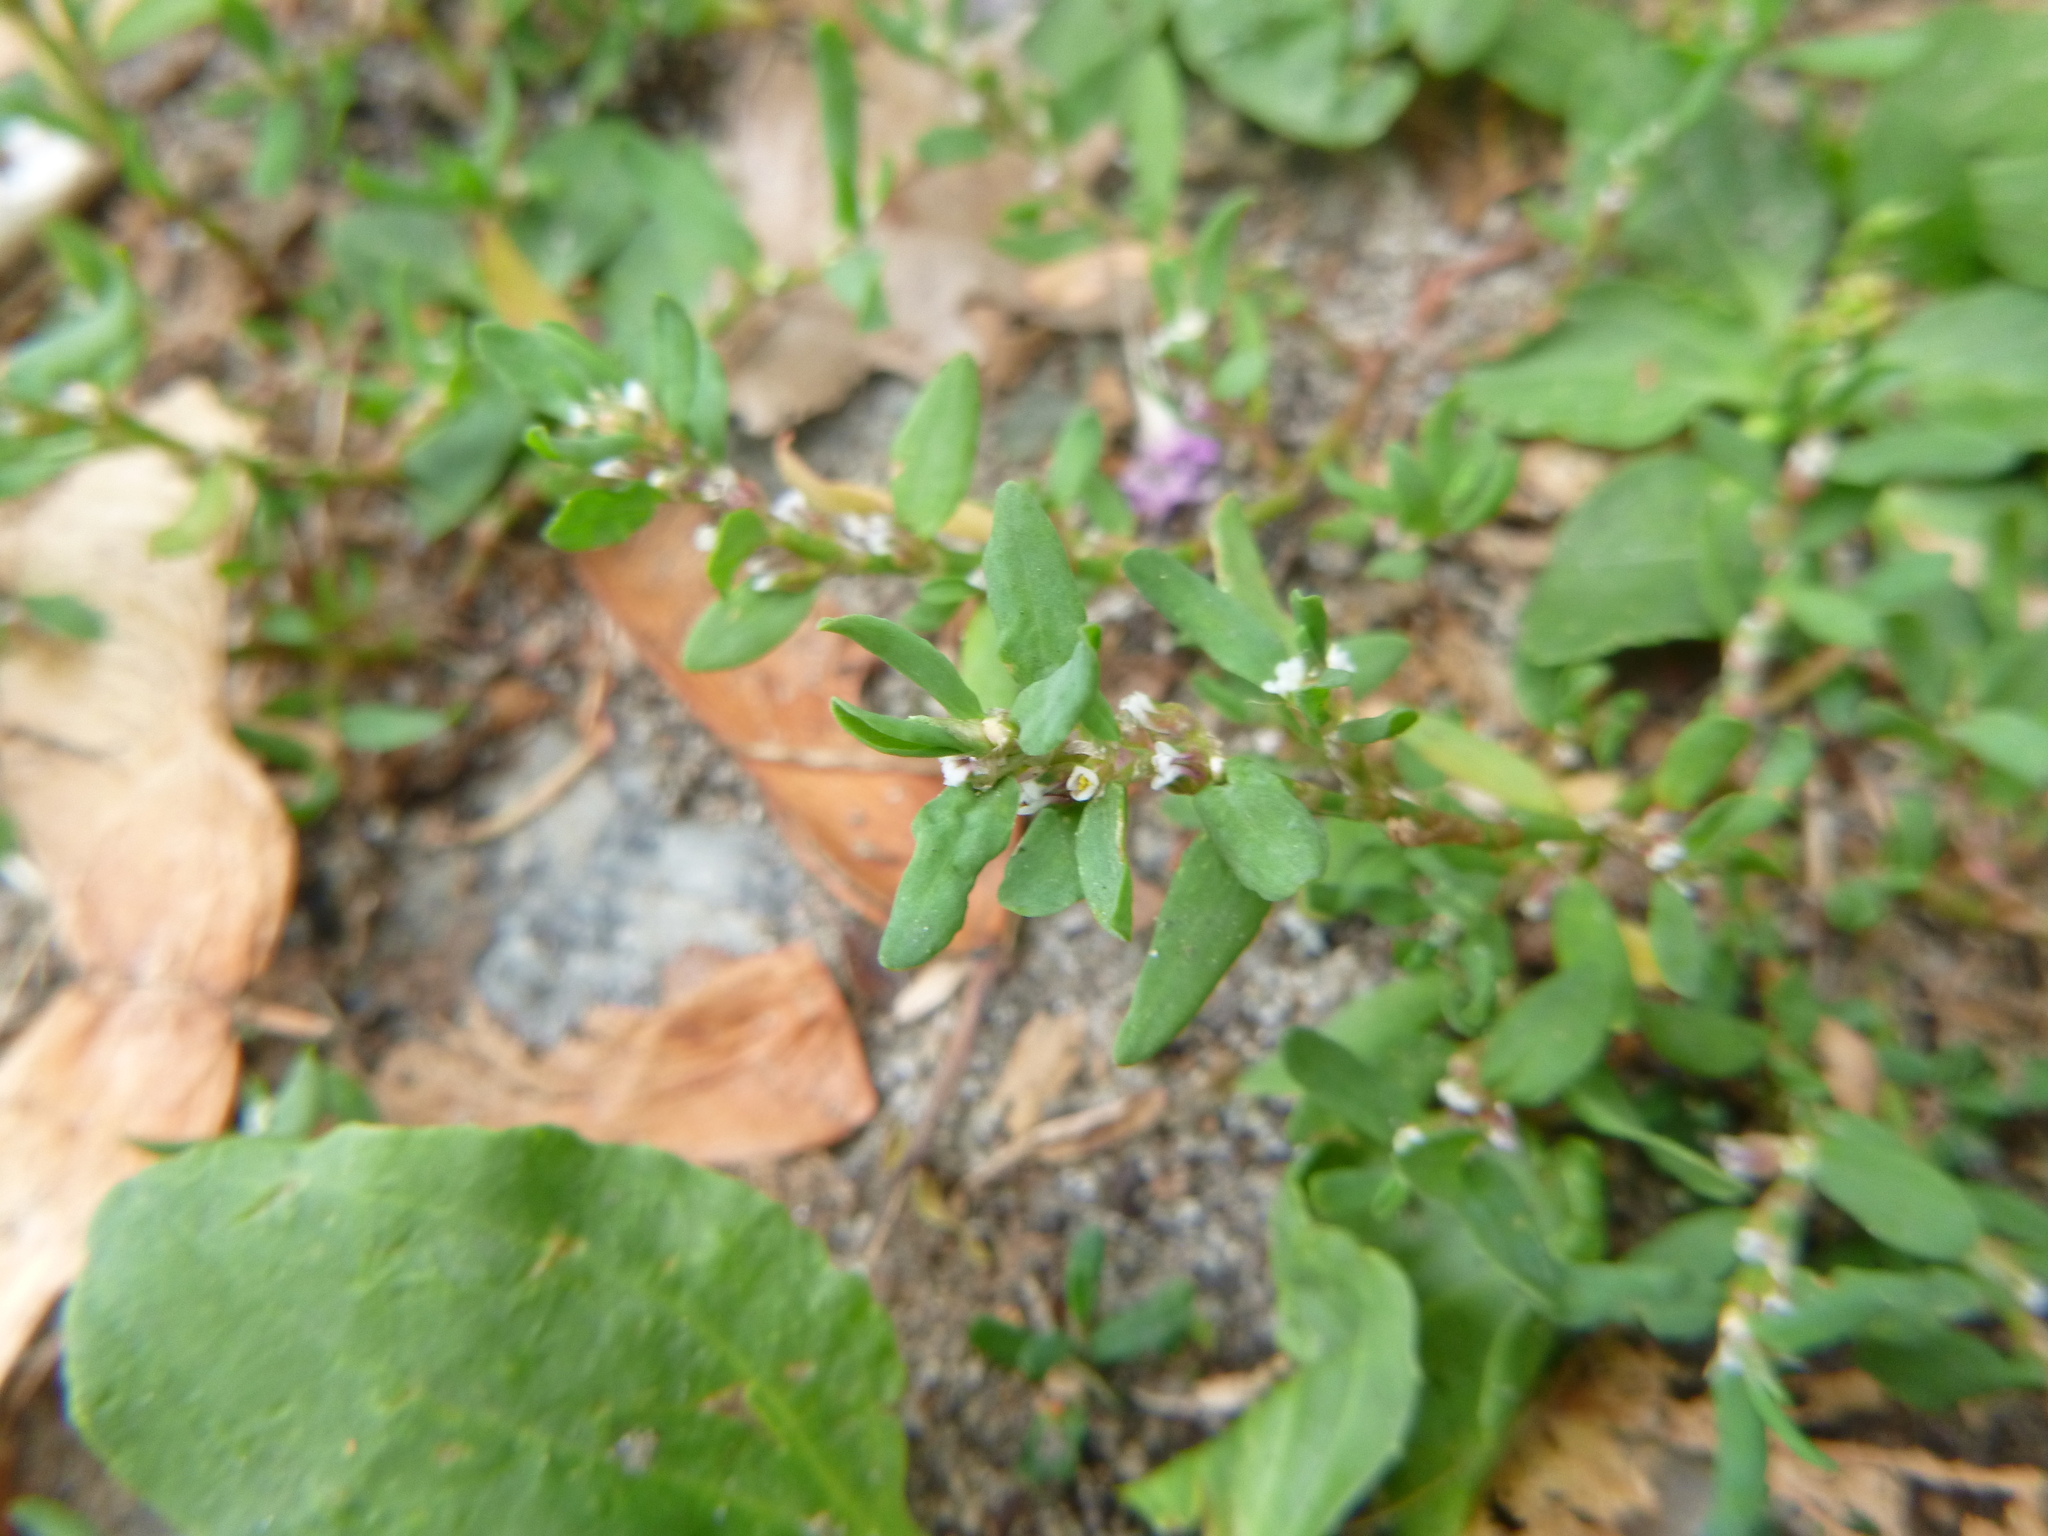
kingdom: Plantae
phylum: Tracheophyta
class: Magnoliopsida
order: Caryophyllales
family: Polygonaceae
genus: Polygonum
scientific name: Polygonum aviculare
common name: Prostrate knotweed
